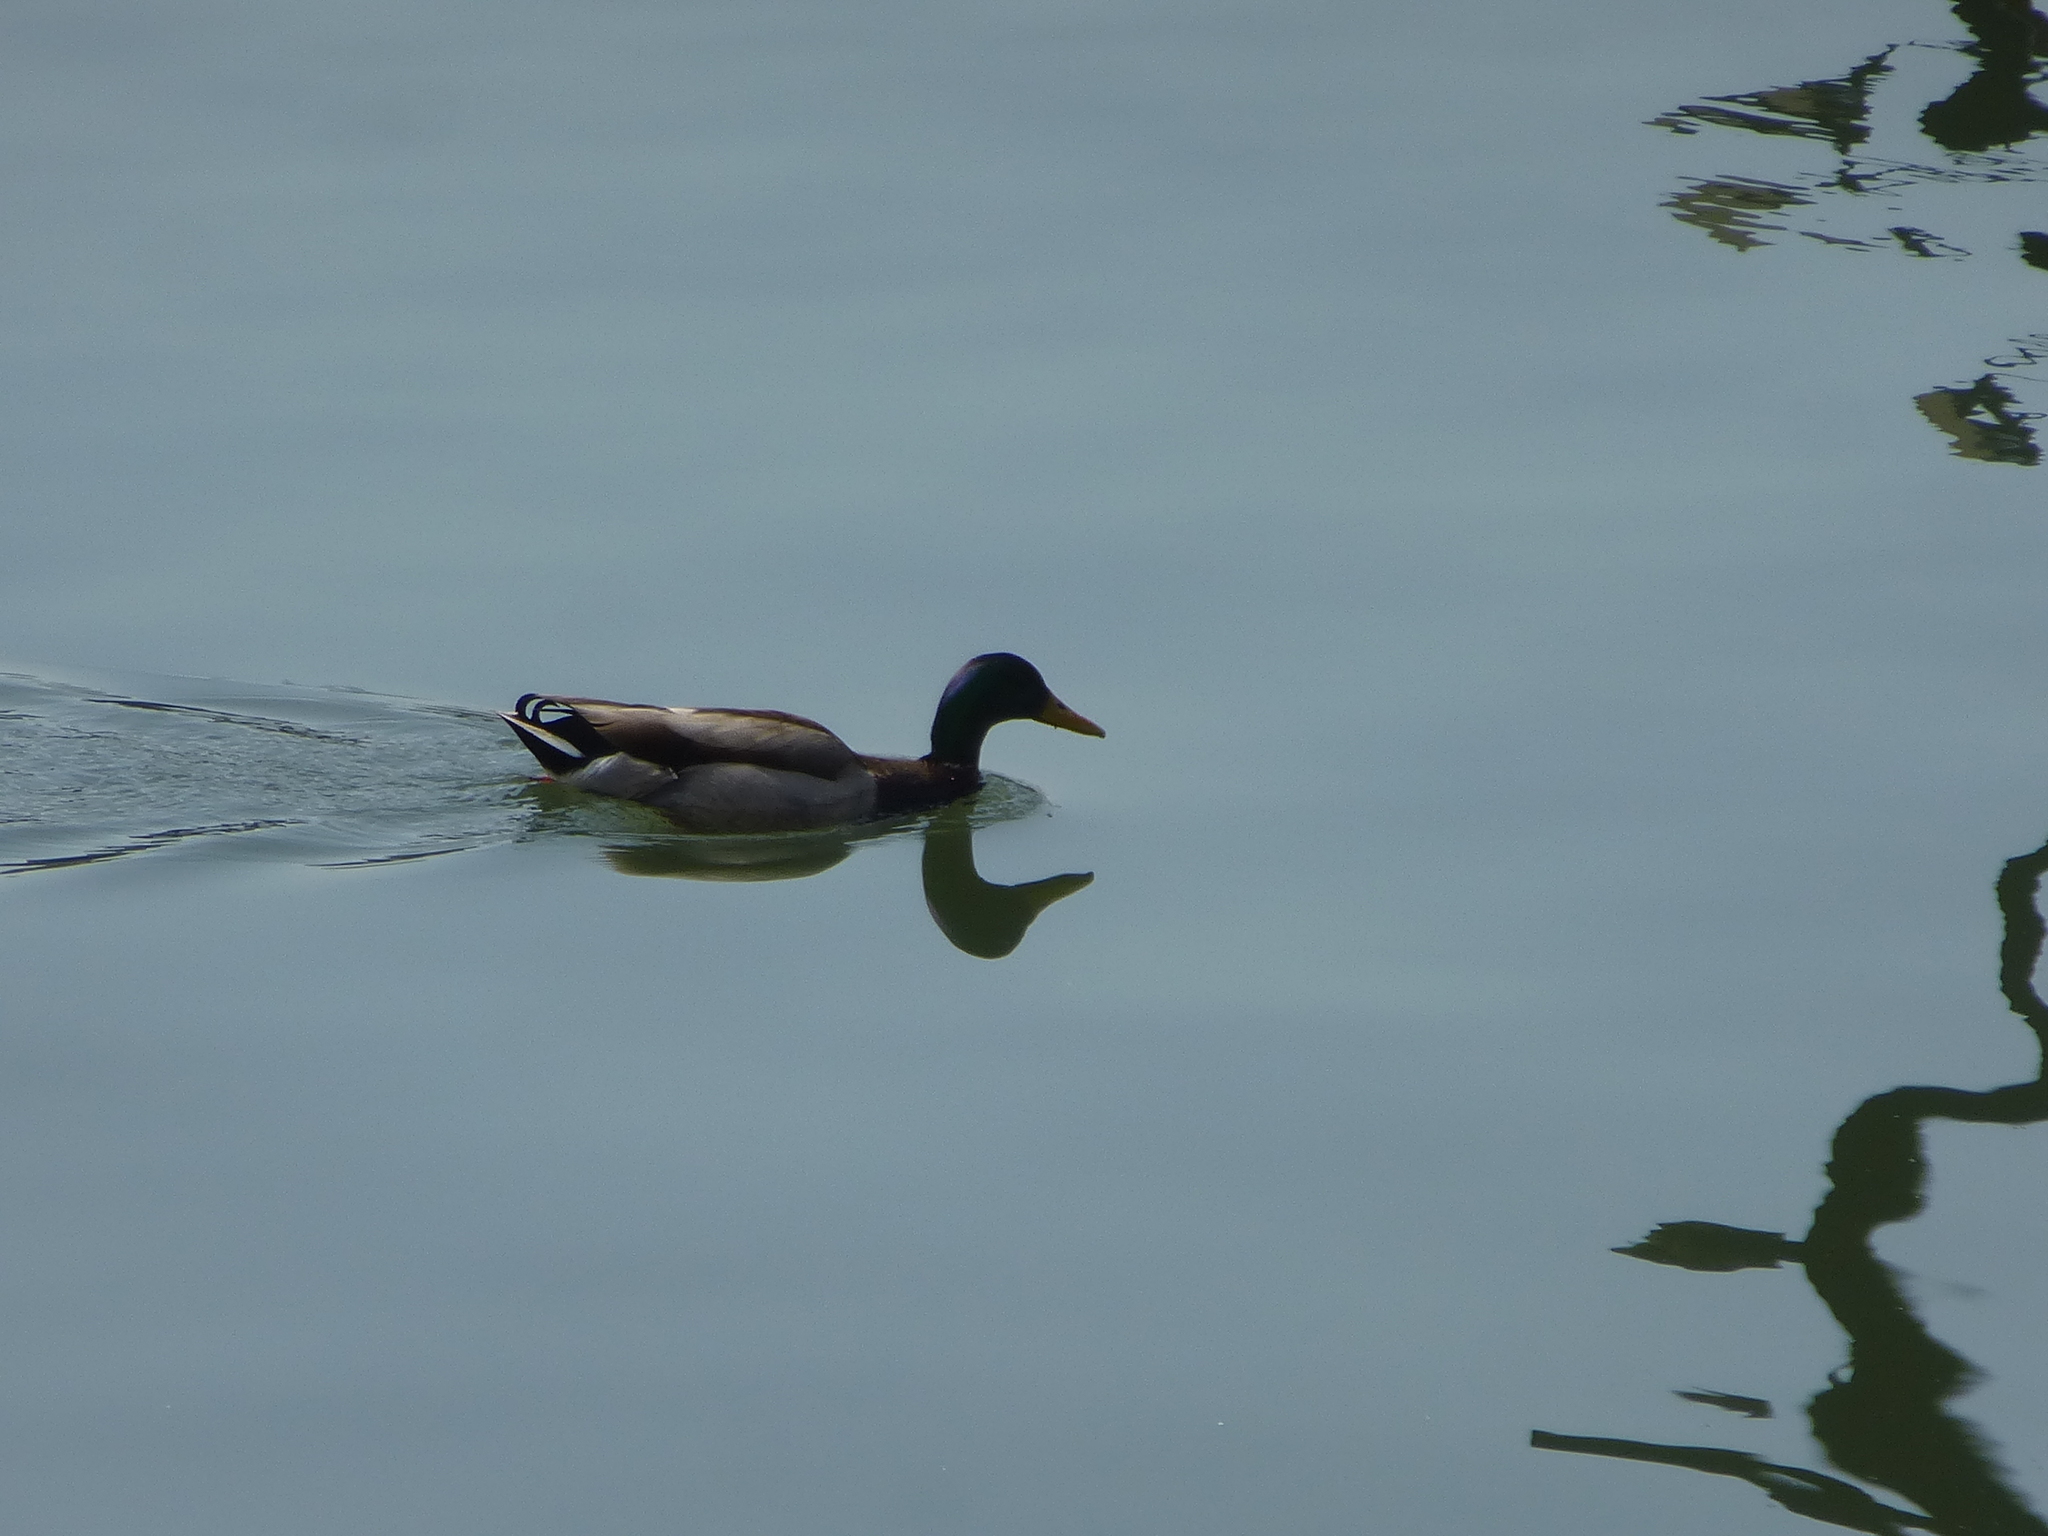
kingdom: Animalia
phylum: Chordata
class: Aves
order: Anseriformes
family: Anatidae
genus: Anas
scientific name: Anas platyrhynchos
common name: Mallard
